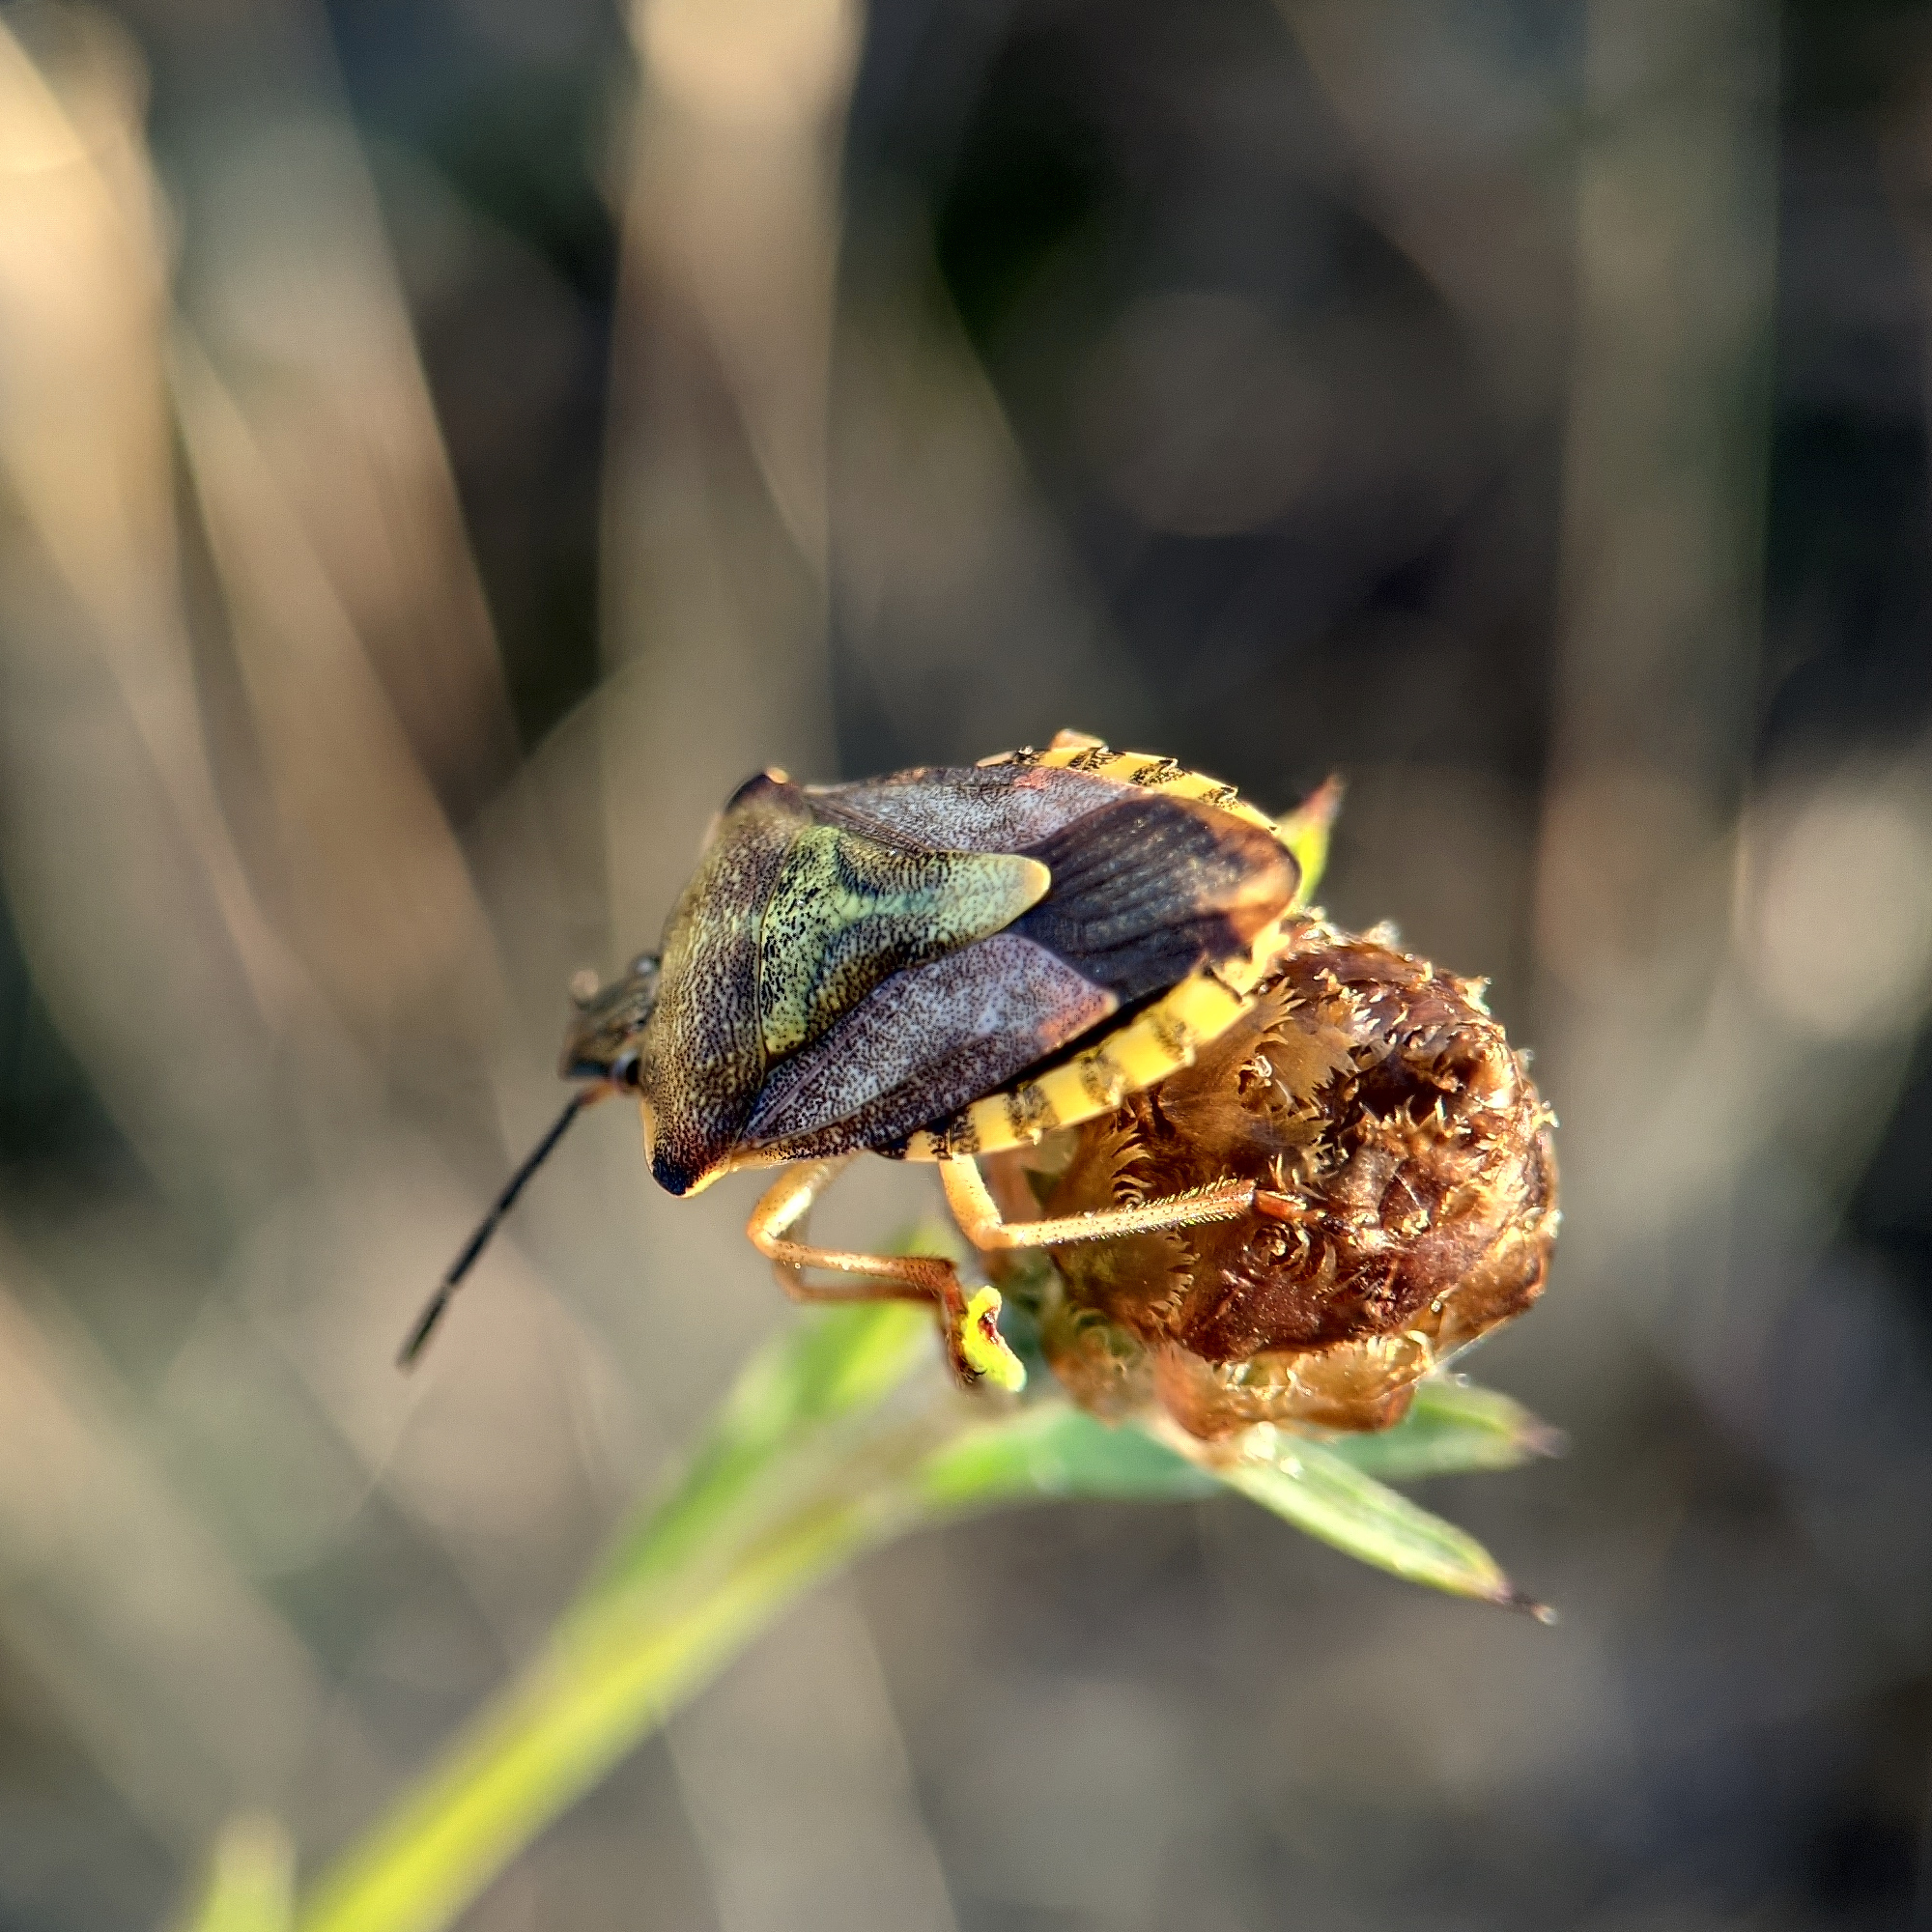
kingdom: Animalia
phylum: Arthropoda
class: Insecta
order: Hemiptera
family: Pentatomidae
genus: Carpocoris
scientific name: Carpocoris purpureipennis
